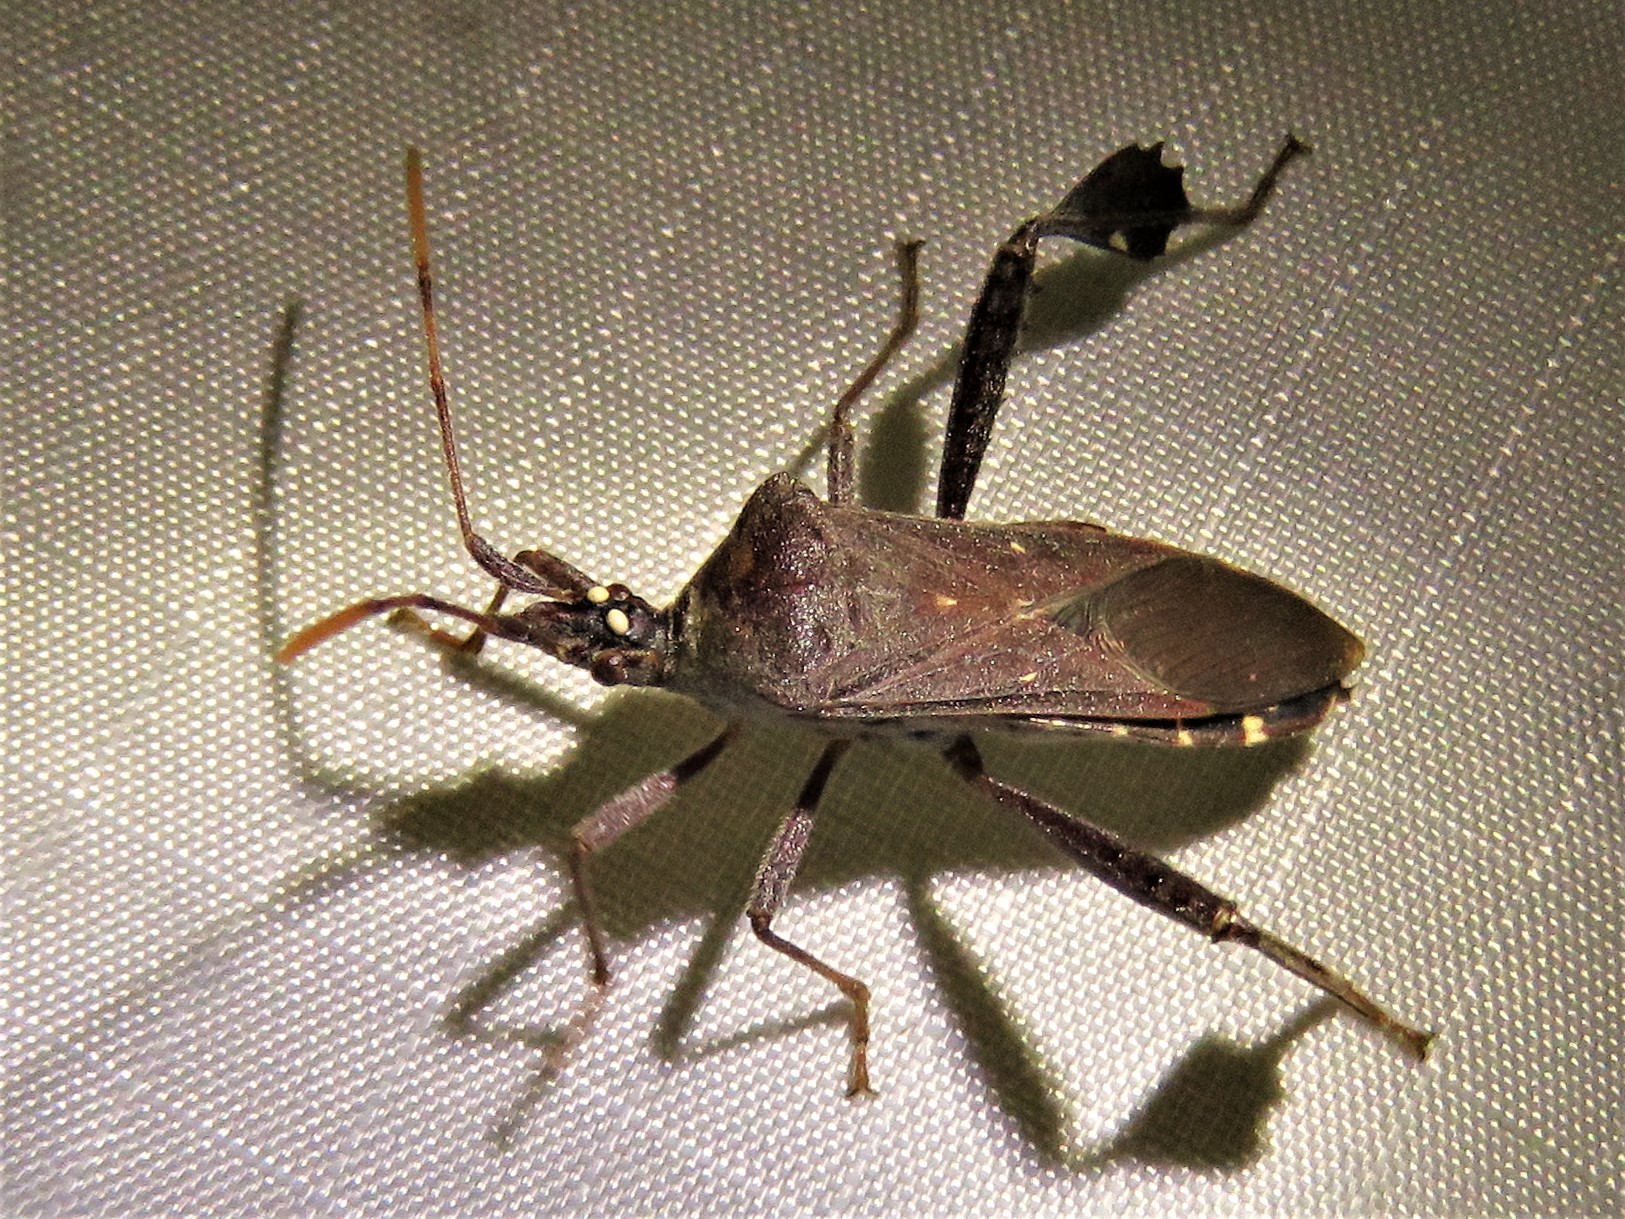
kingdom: Animalia
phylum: Arthropoda
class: Insecta
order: Hemiptera
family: Coreidae
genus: Leptoglossus
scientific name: Leptoglossus oppositus
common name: Northern leaf-footed bug
